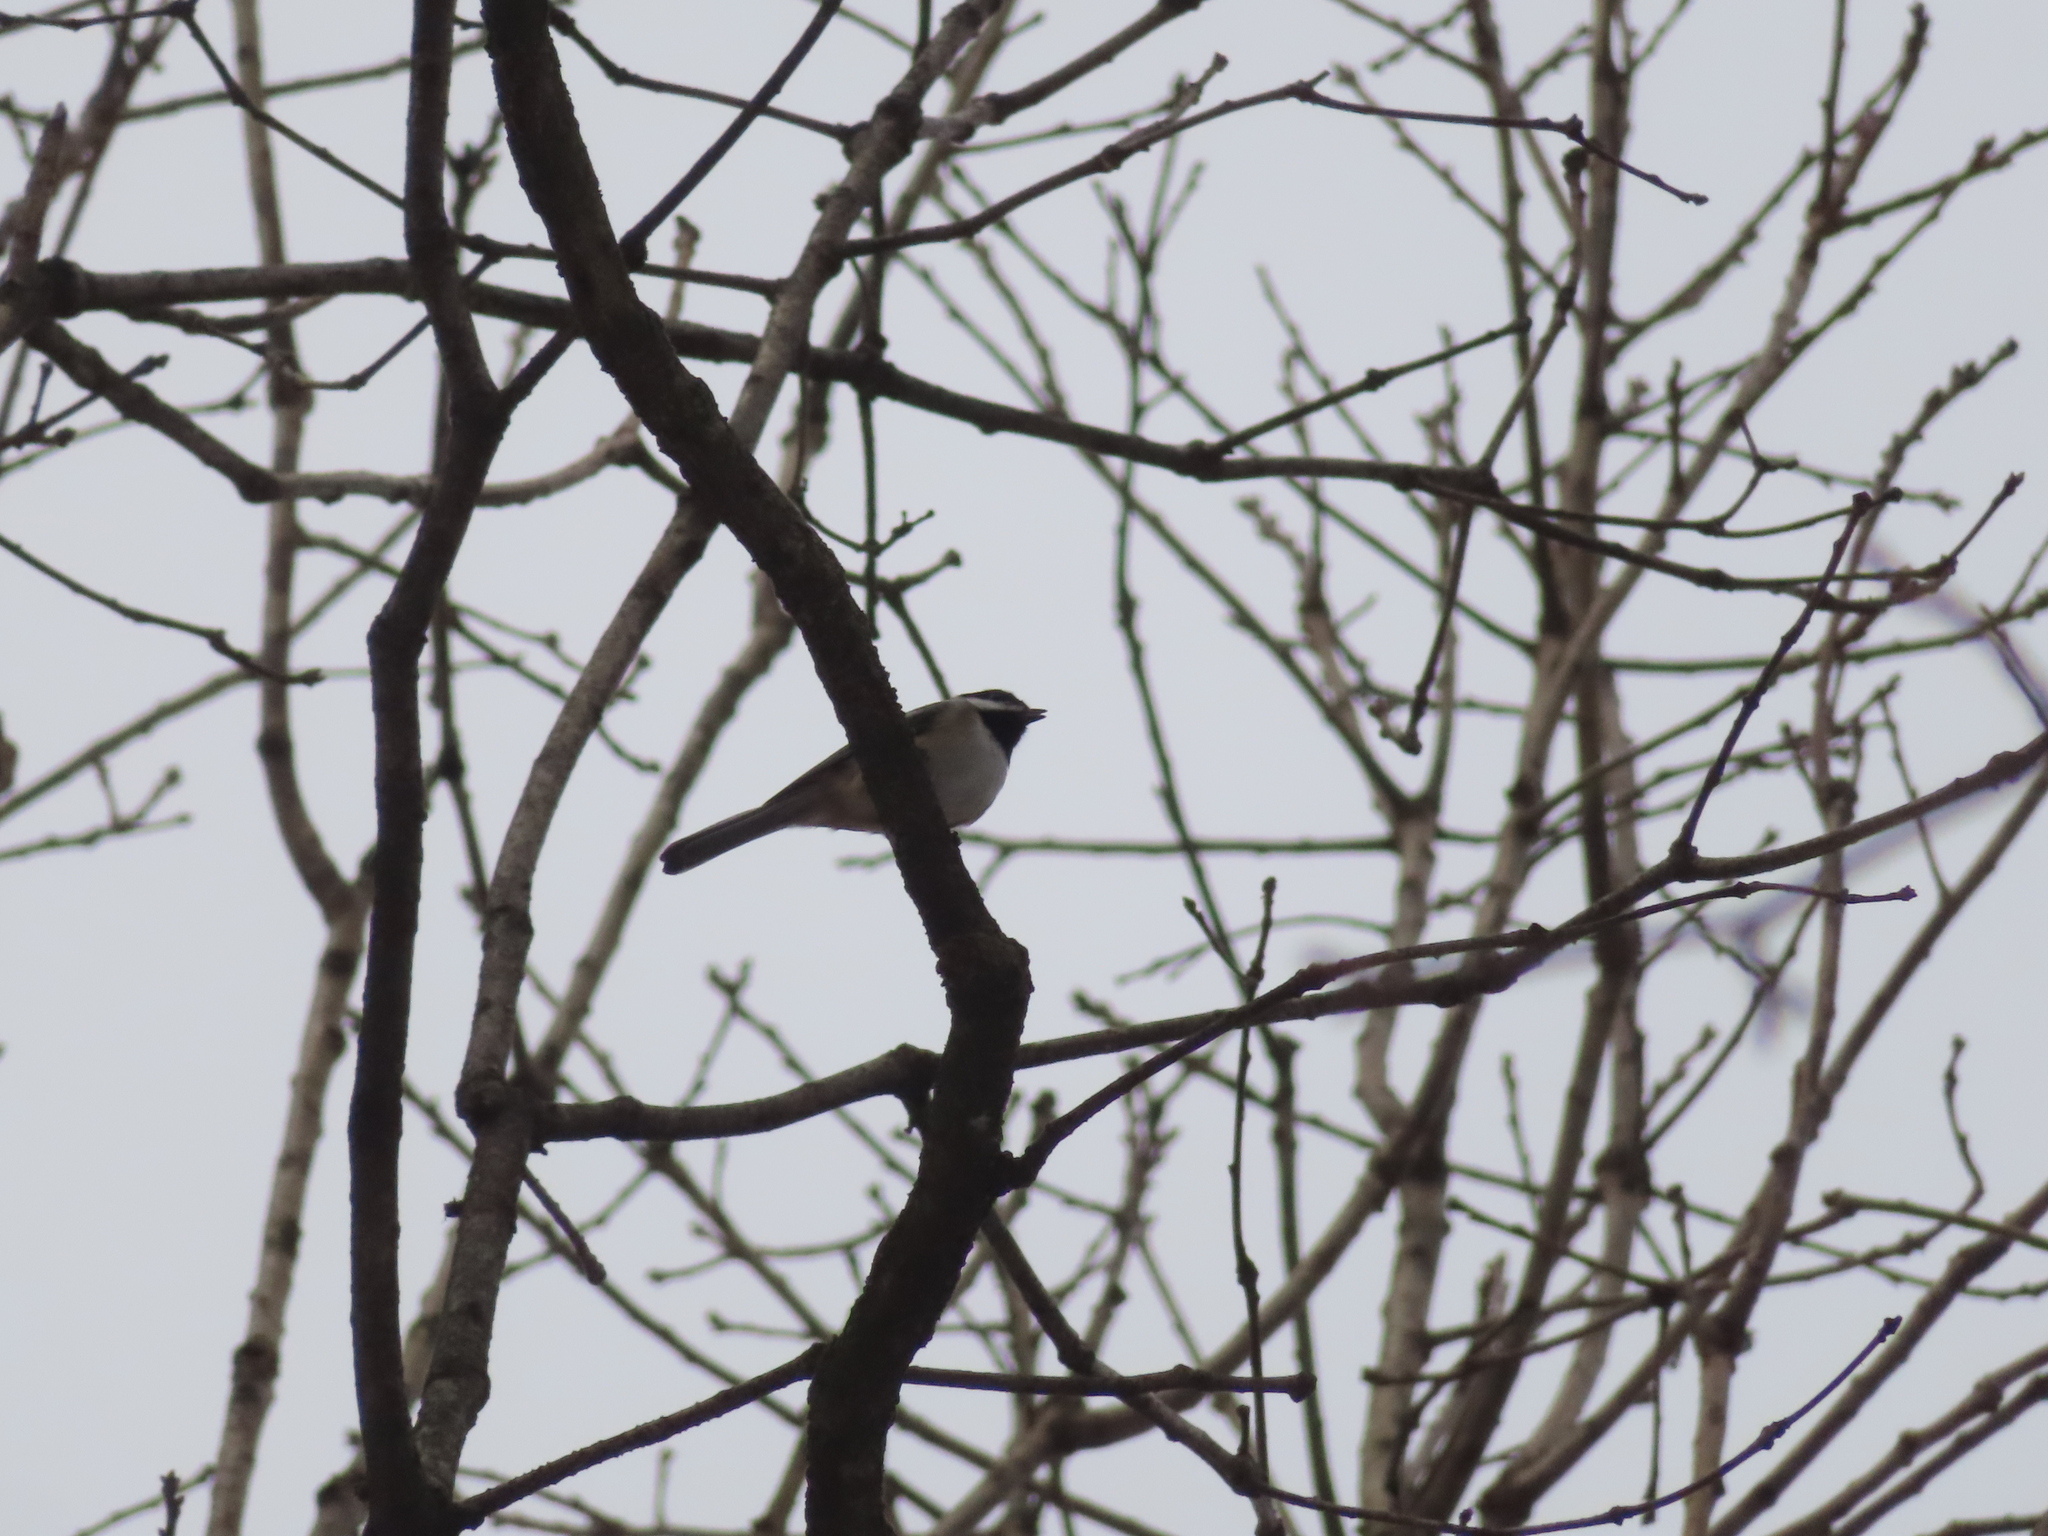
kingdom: Animalia
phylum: Chordata
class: Aves
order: Passeriformes
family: Paridae
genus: Poecile
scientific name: Poecile atricapillus
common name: Black-capped chickadee
